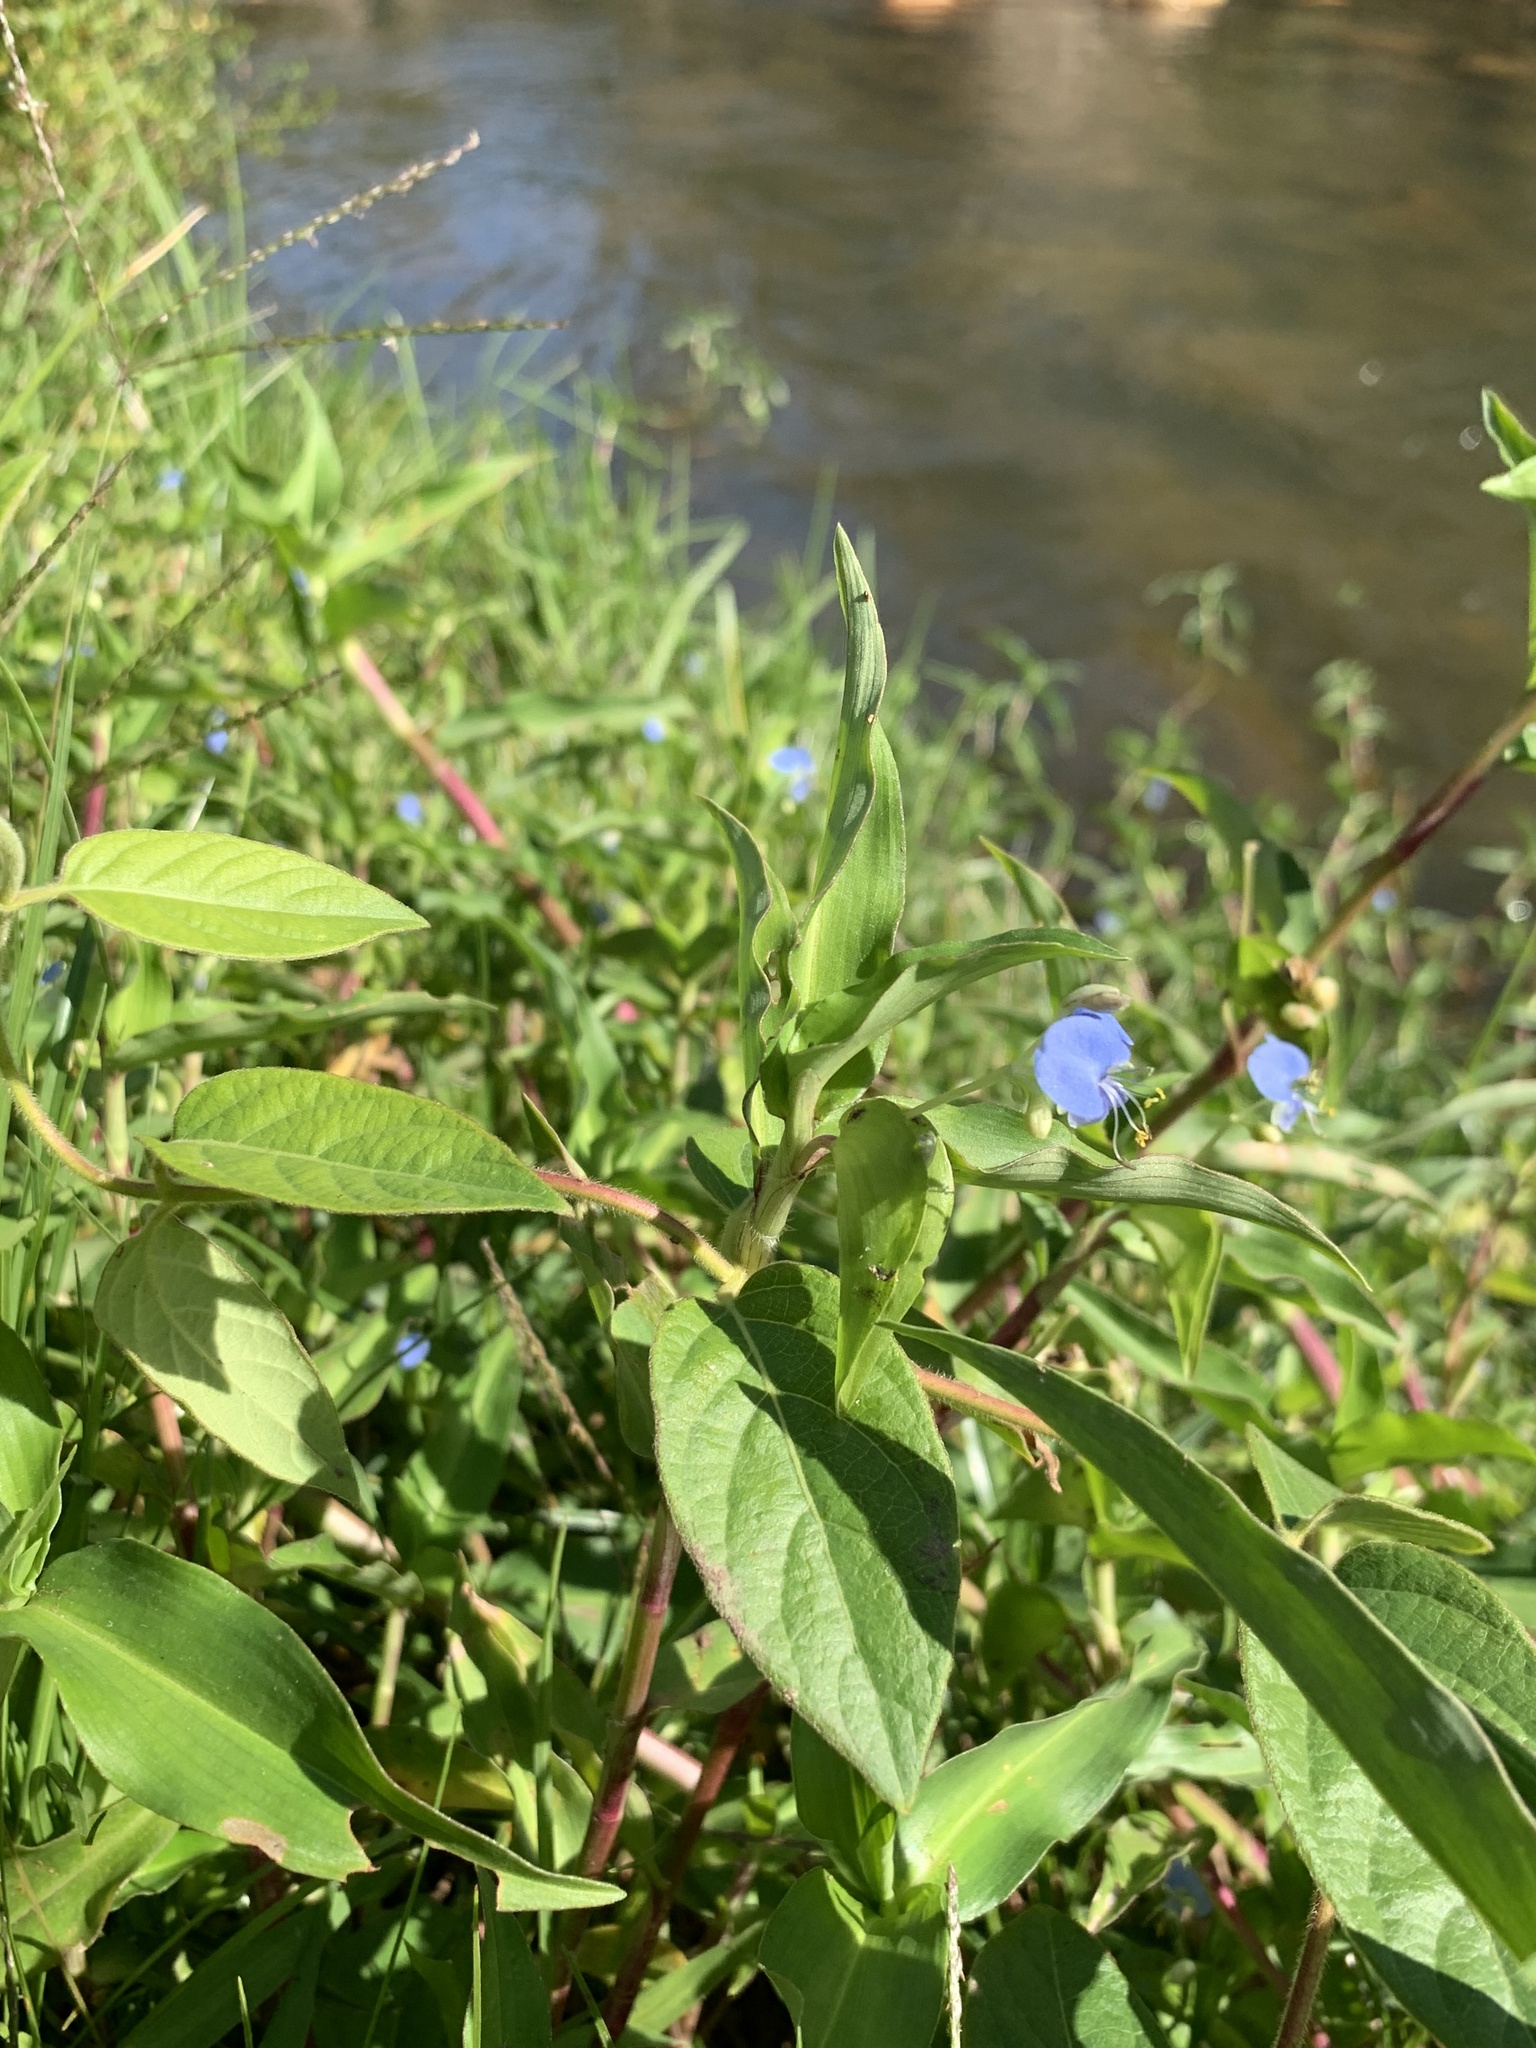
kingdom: Plantae
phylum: Tracheophyta
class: Liliopsida
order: Commelinales
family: Commelinaceae
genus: Commelina
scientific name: Commelina diffusa
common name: Climbing dayflower
